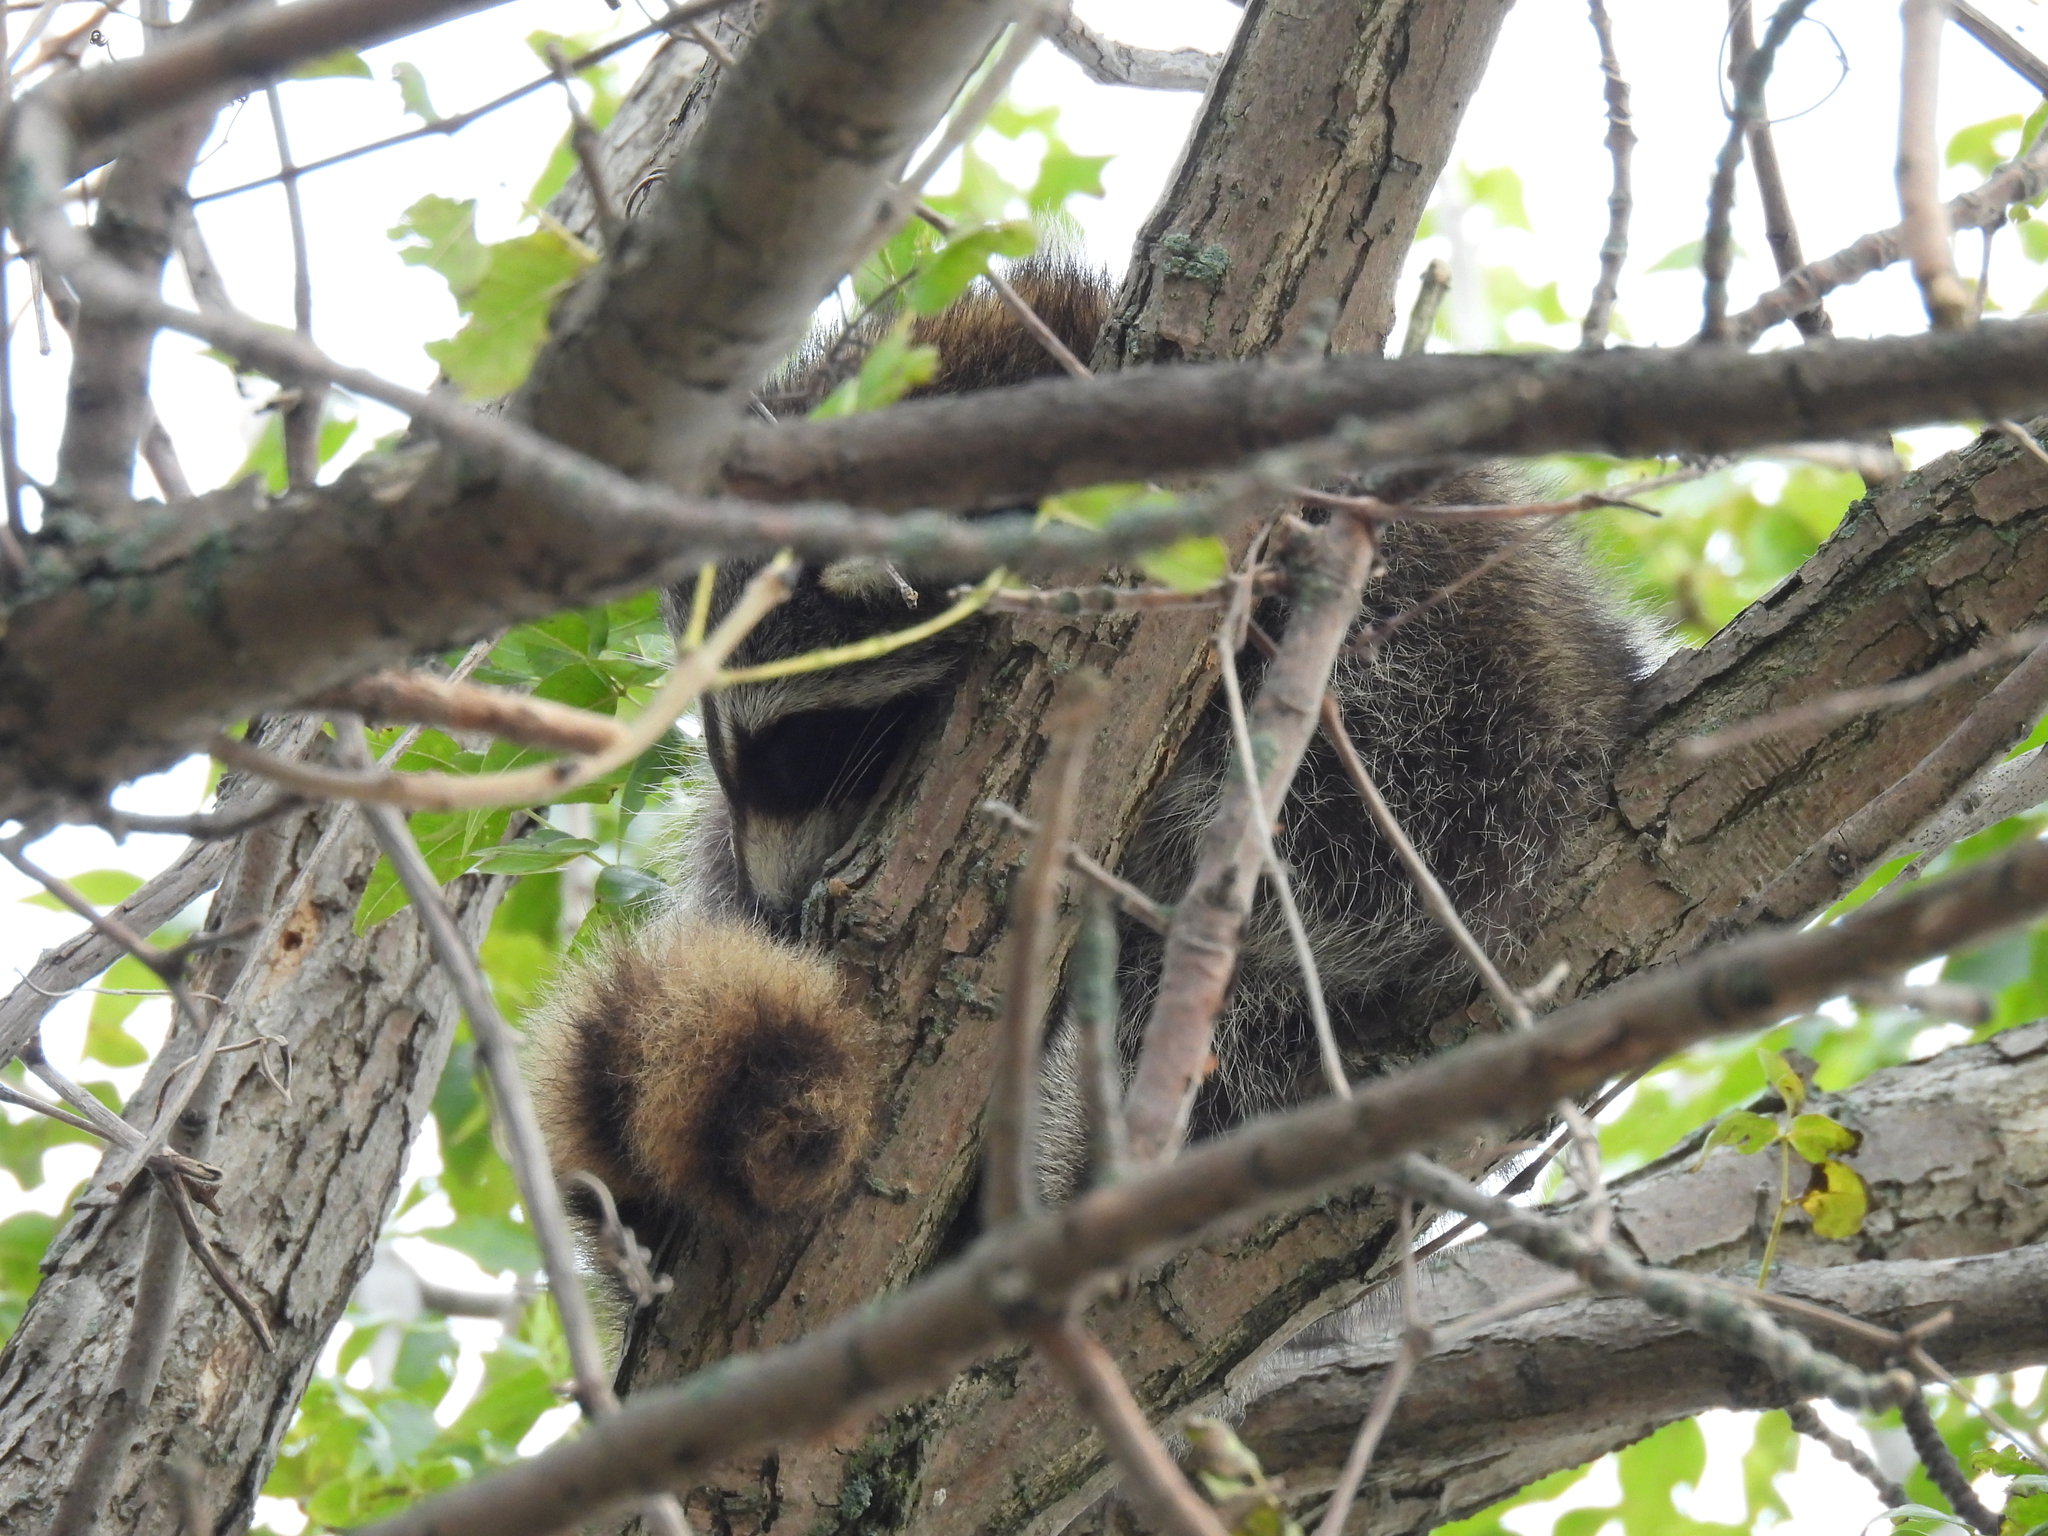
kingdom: Animalia
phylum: Chordata
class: Mammalia
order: Carnivora
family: Procyonidae
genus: Procyon
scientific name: Procyon lotor
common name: Raccoon
